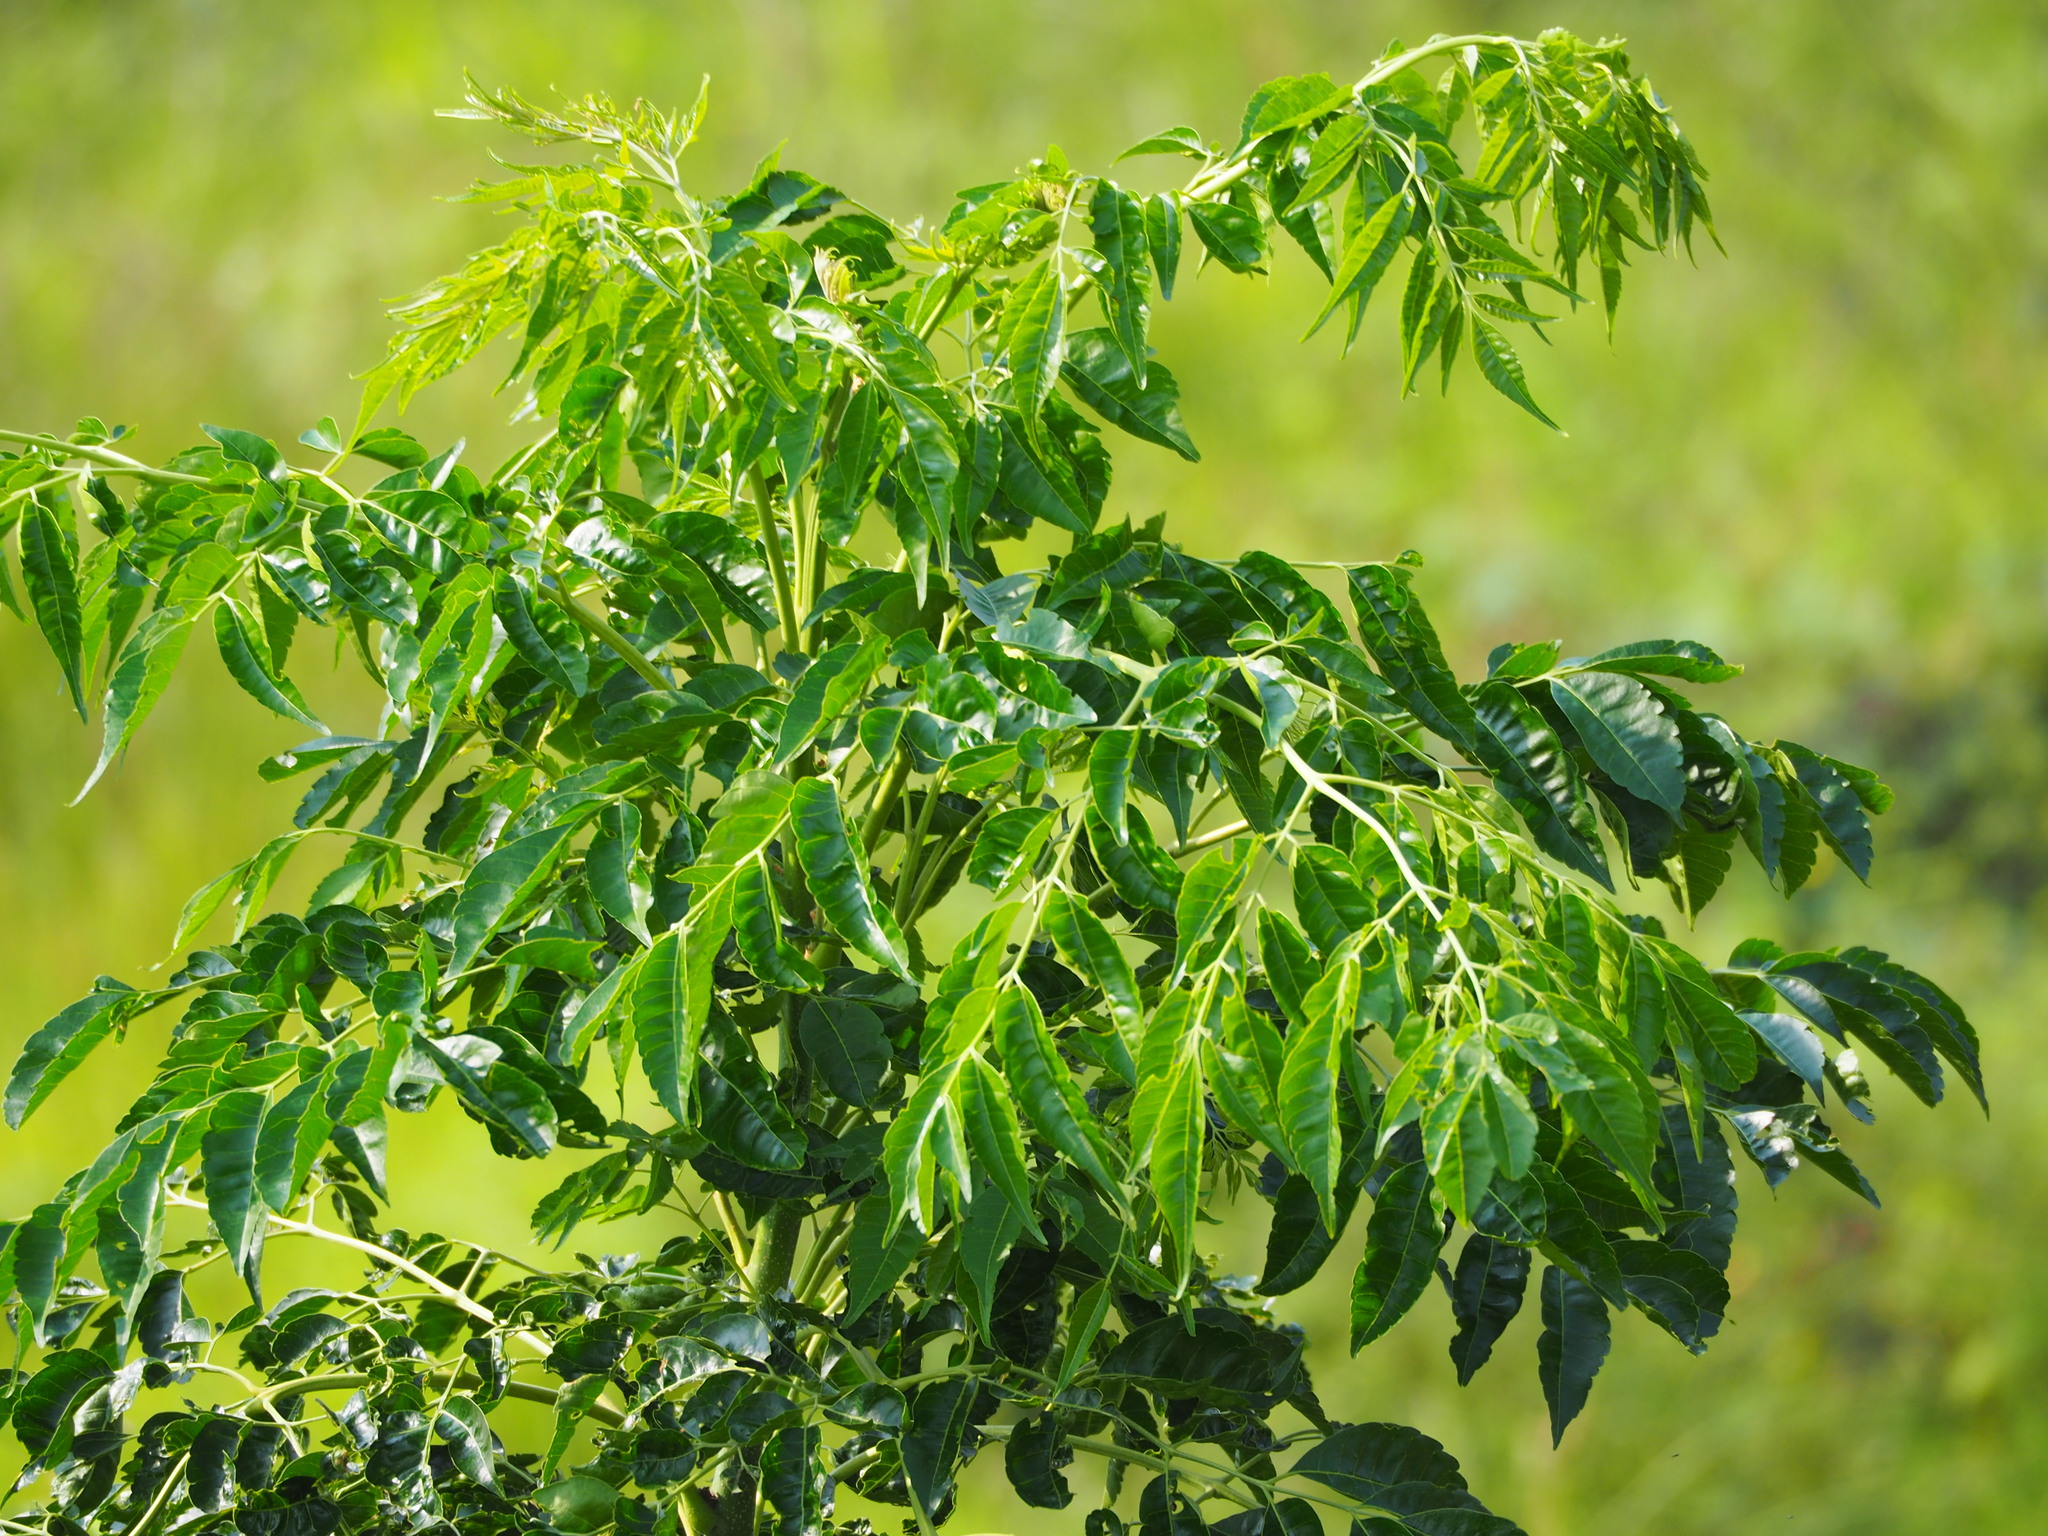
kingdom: Plantae
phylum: Tracheophyta
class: Magnoliopsida
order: Sapindales
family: Meliaceae
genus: Melia
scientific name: Melia azedarach
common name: Chinaberrytree
